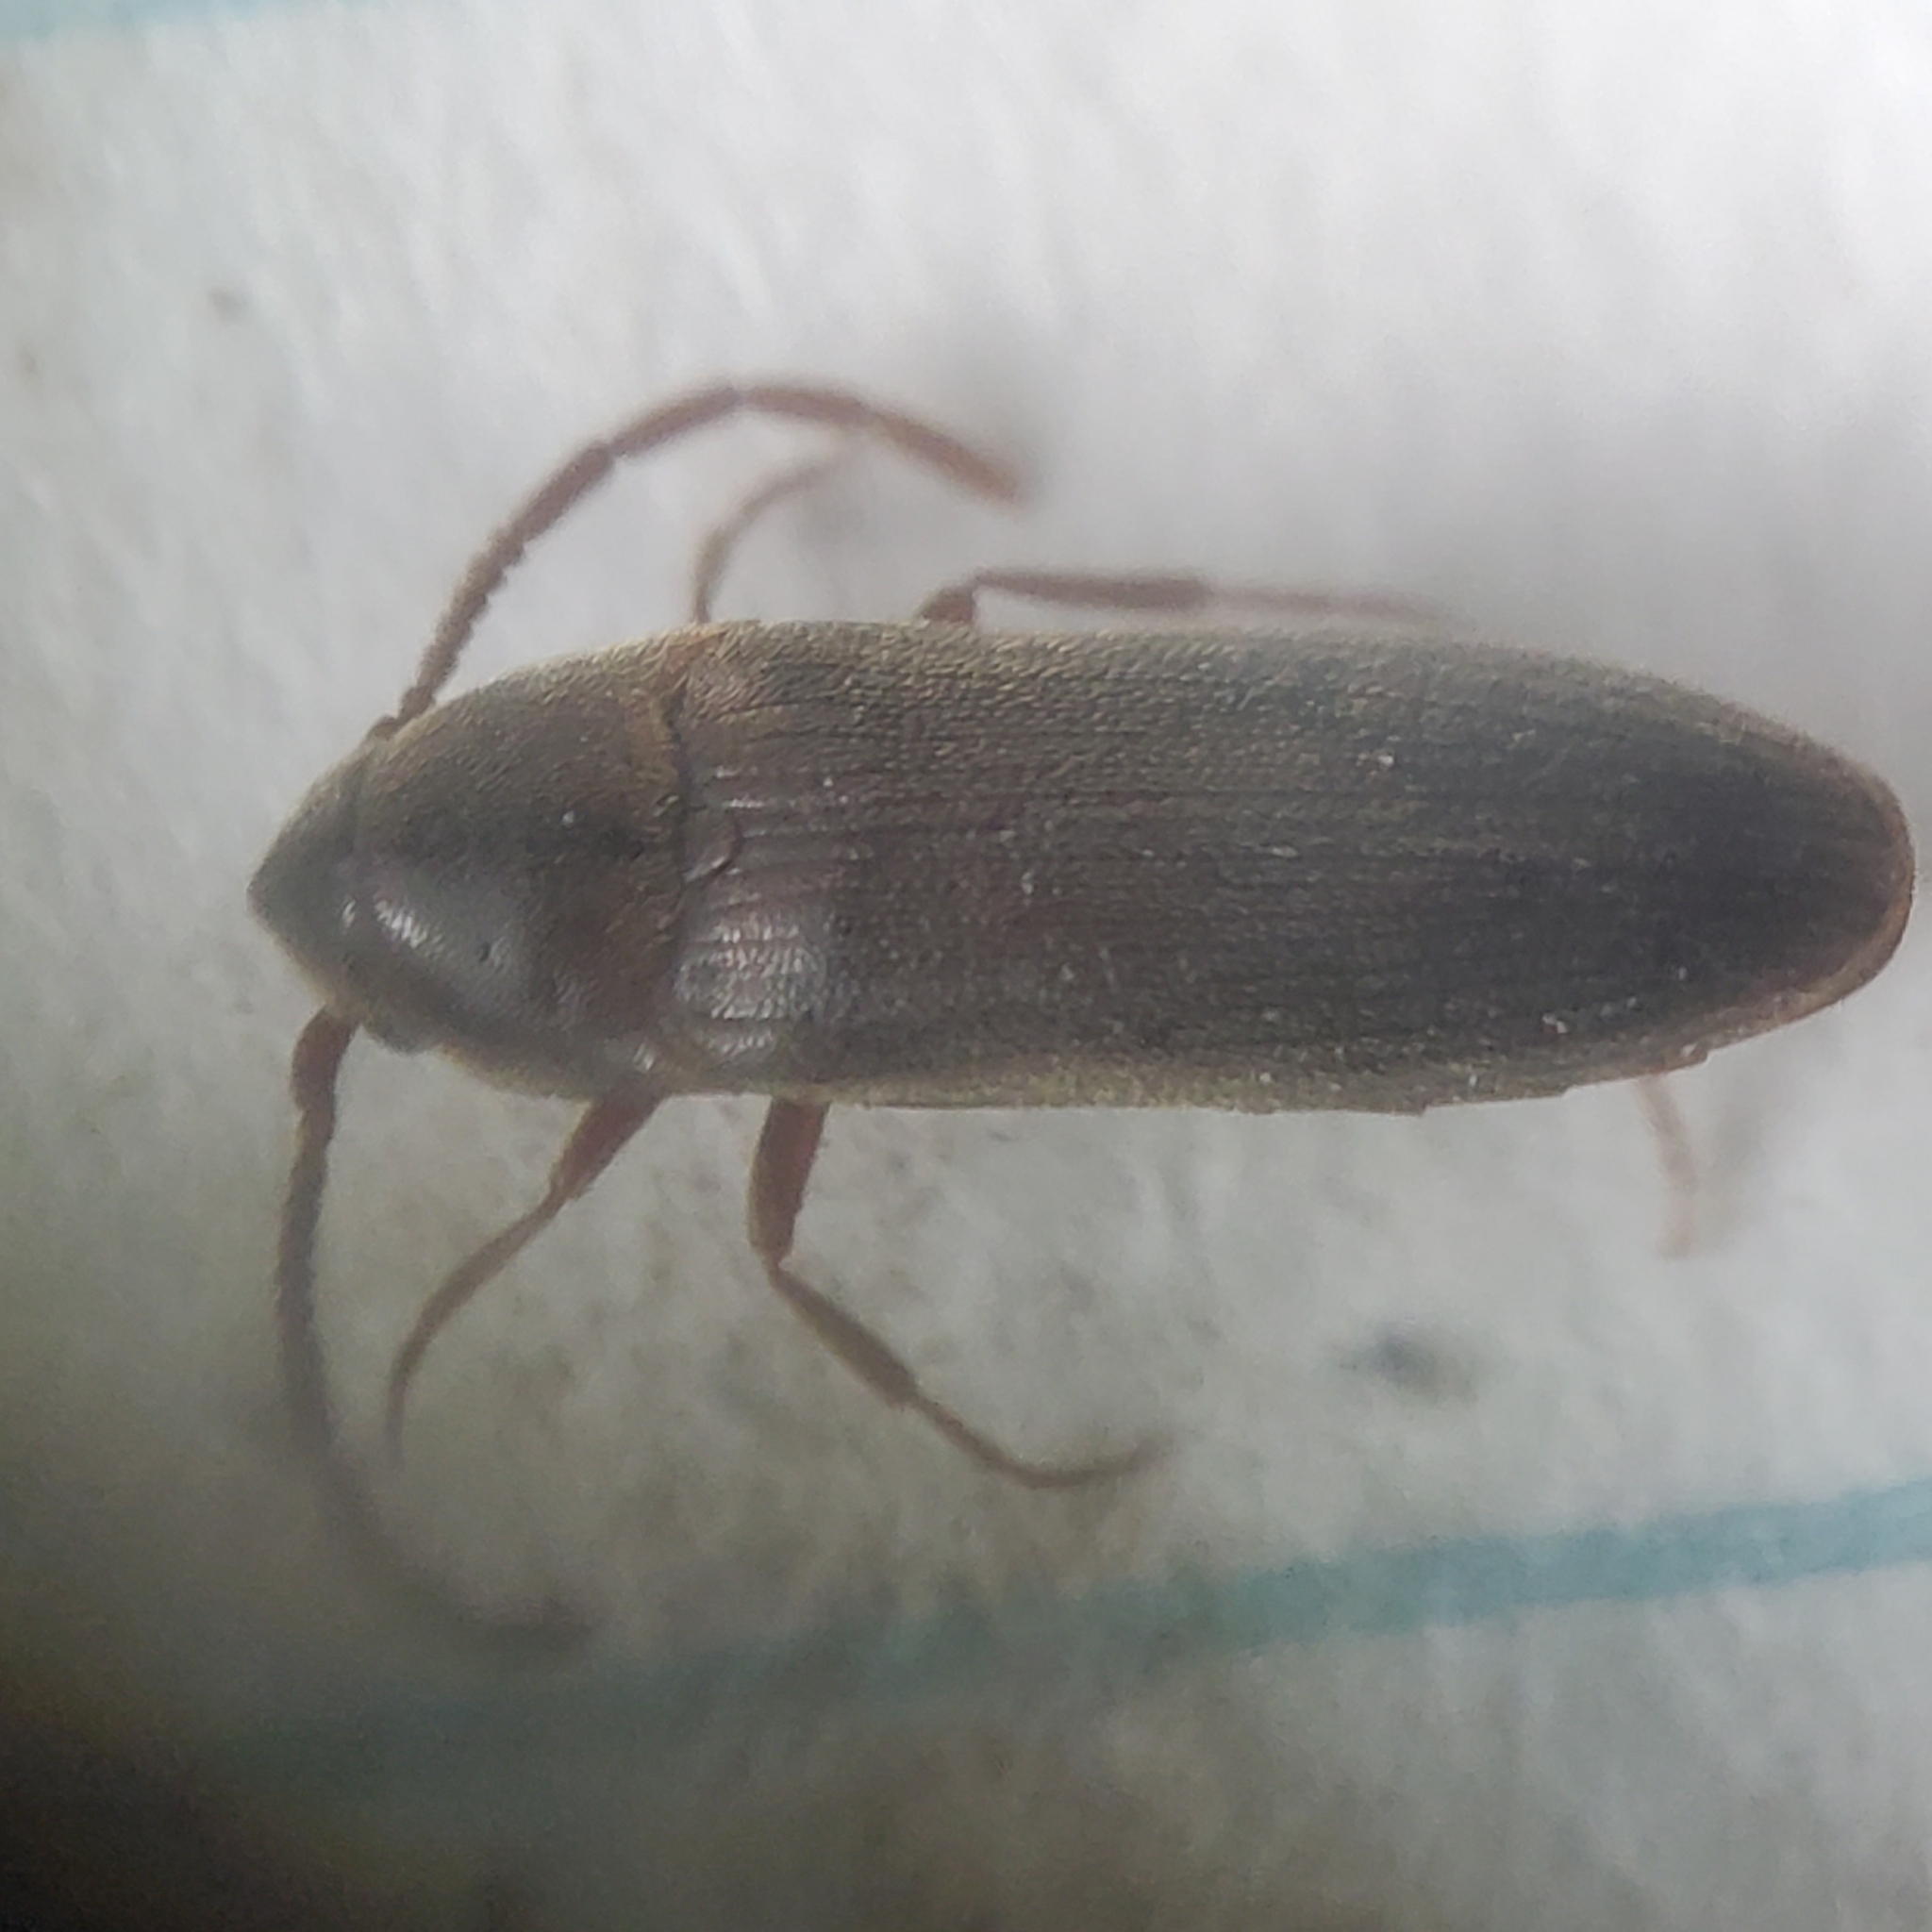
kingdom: Animalia
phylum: Arthropoda
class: Insecta
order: Coleoptera
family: Eucnemidae
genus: Epiphanis
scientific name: Epiphanis cornutus
